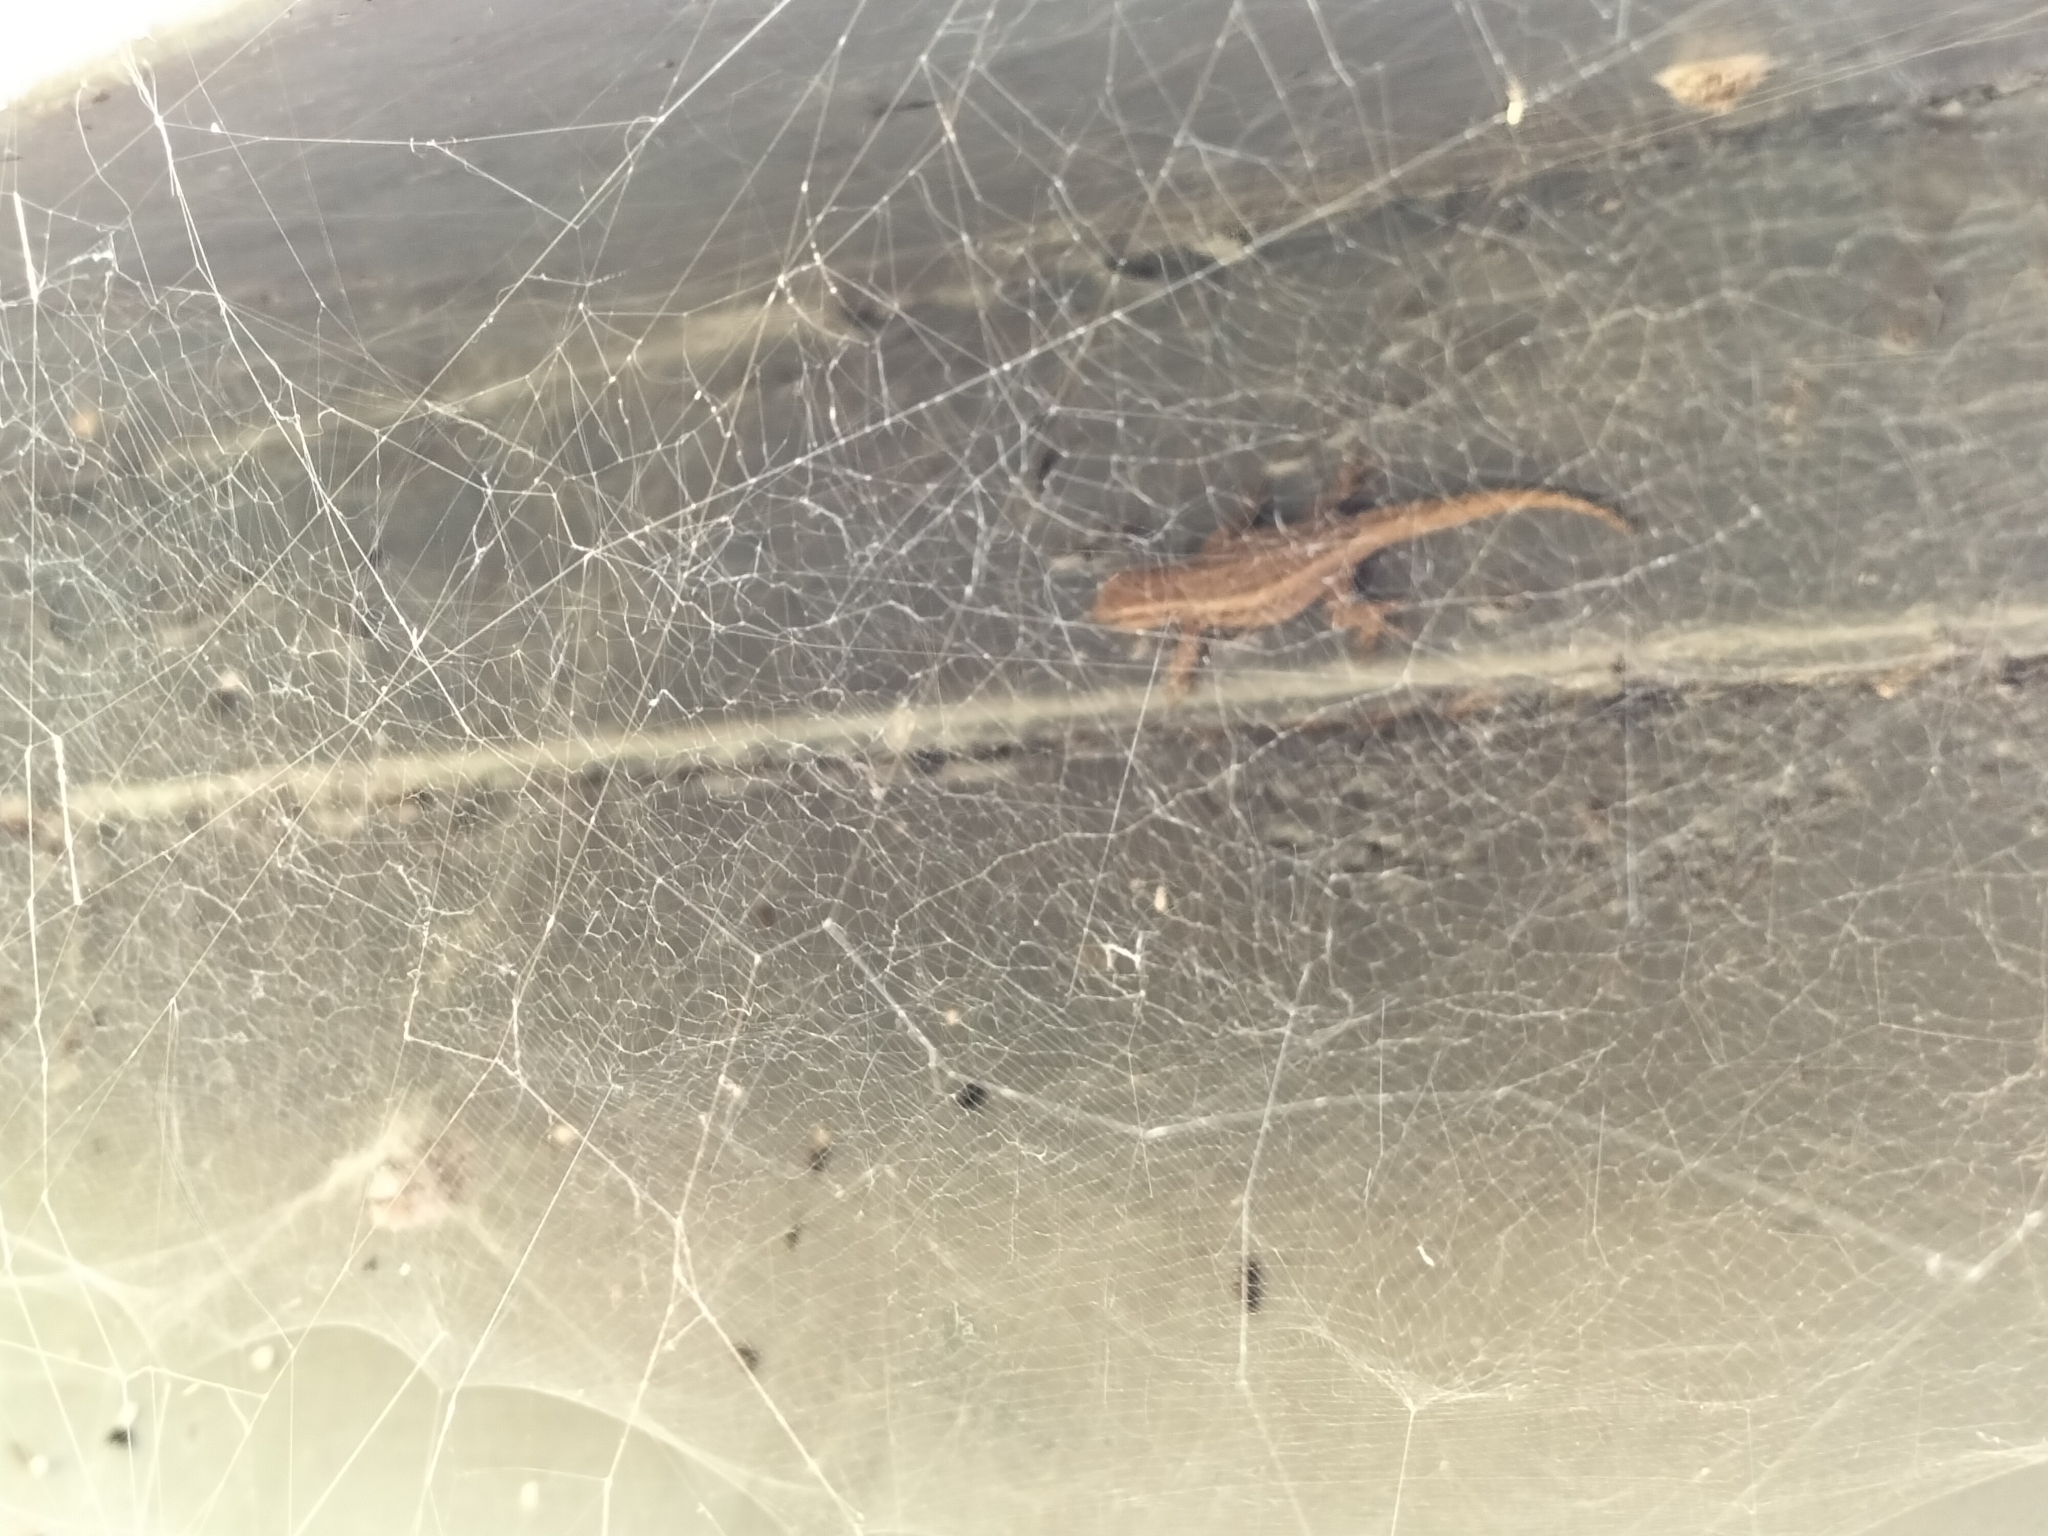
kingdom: Animalia
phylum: Chordata
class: Squamata
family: Gekkonidae
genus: Lygodactylus
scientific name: Lygodactylus capensis
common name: Cape dwarf gecko
